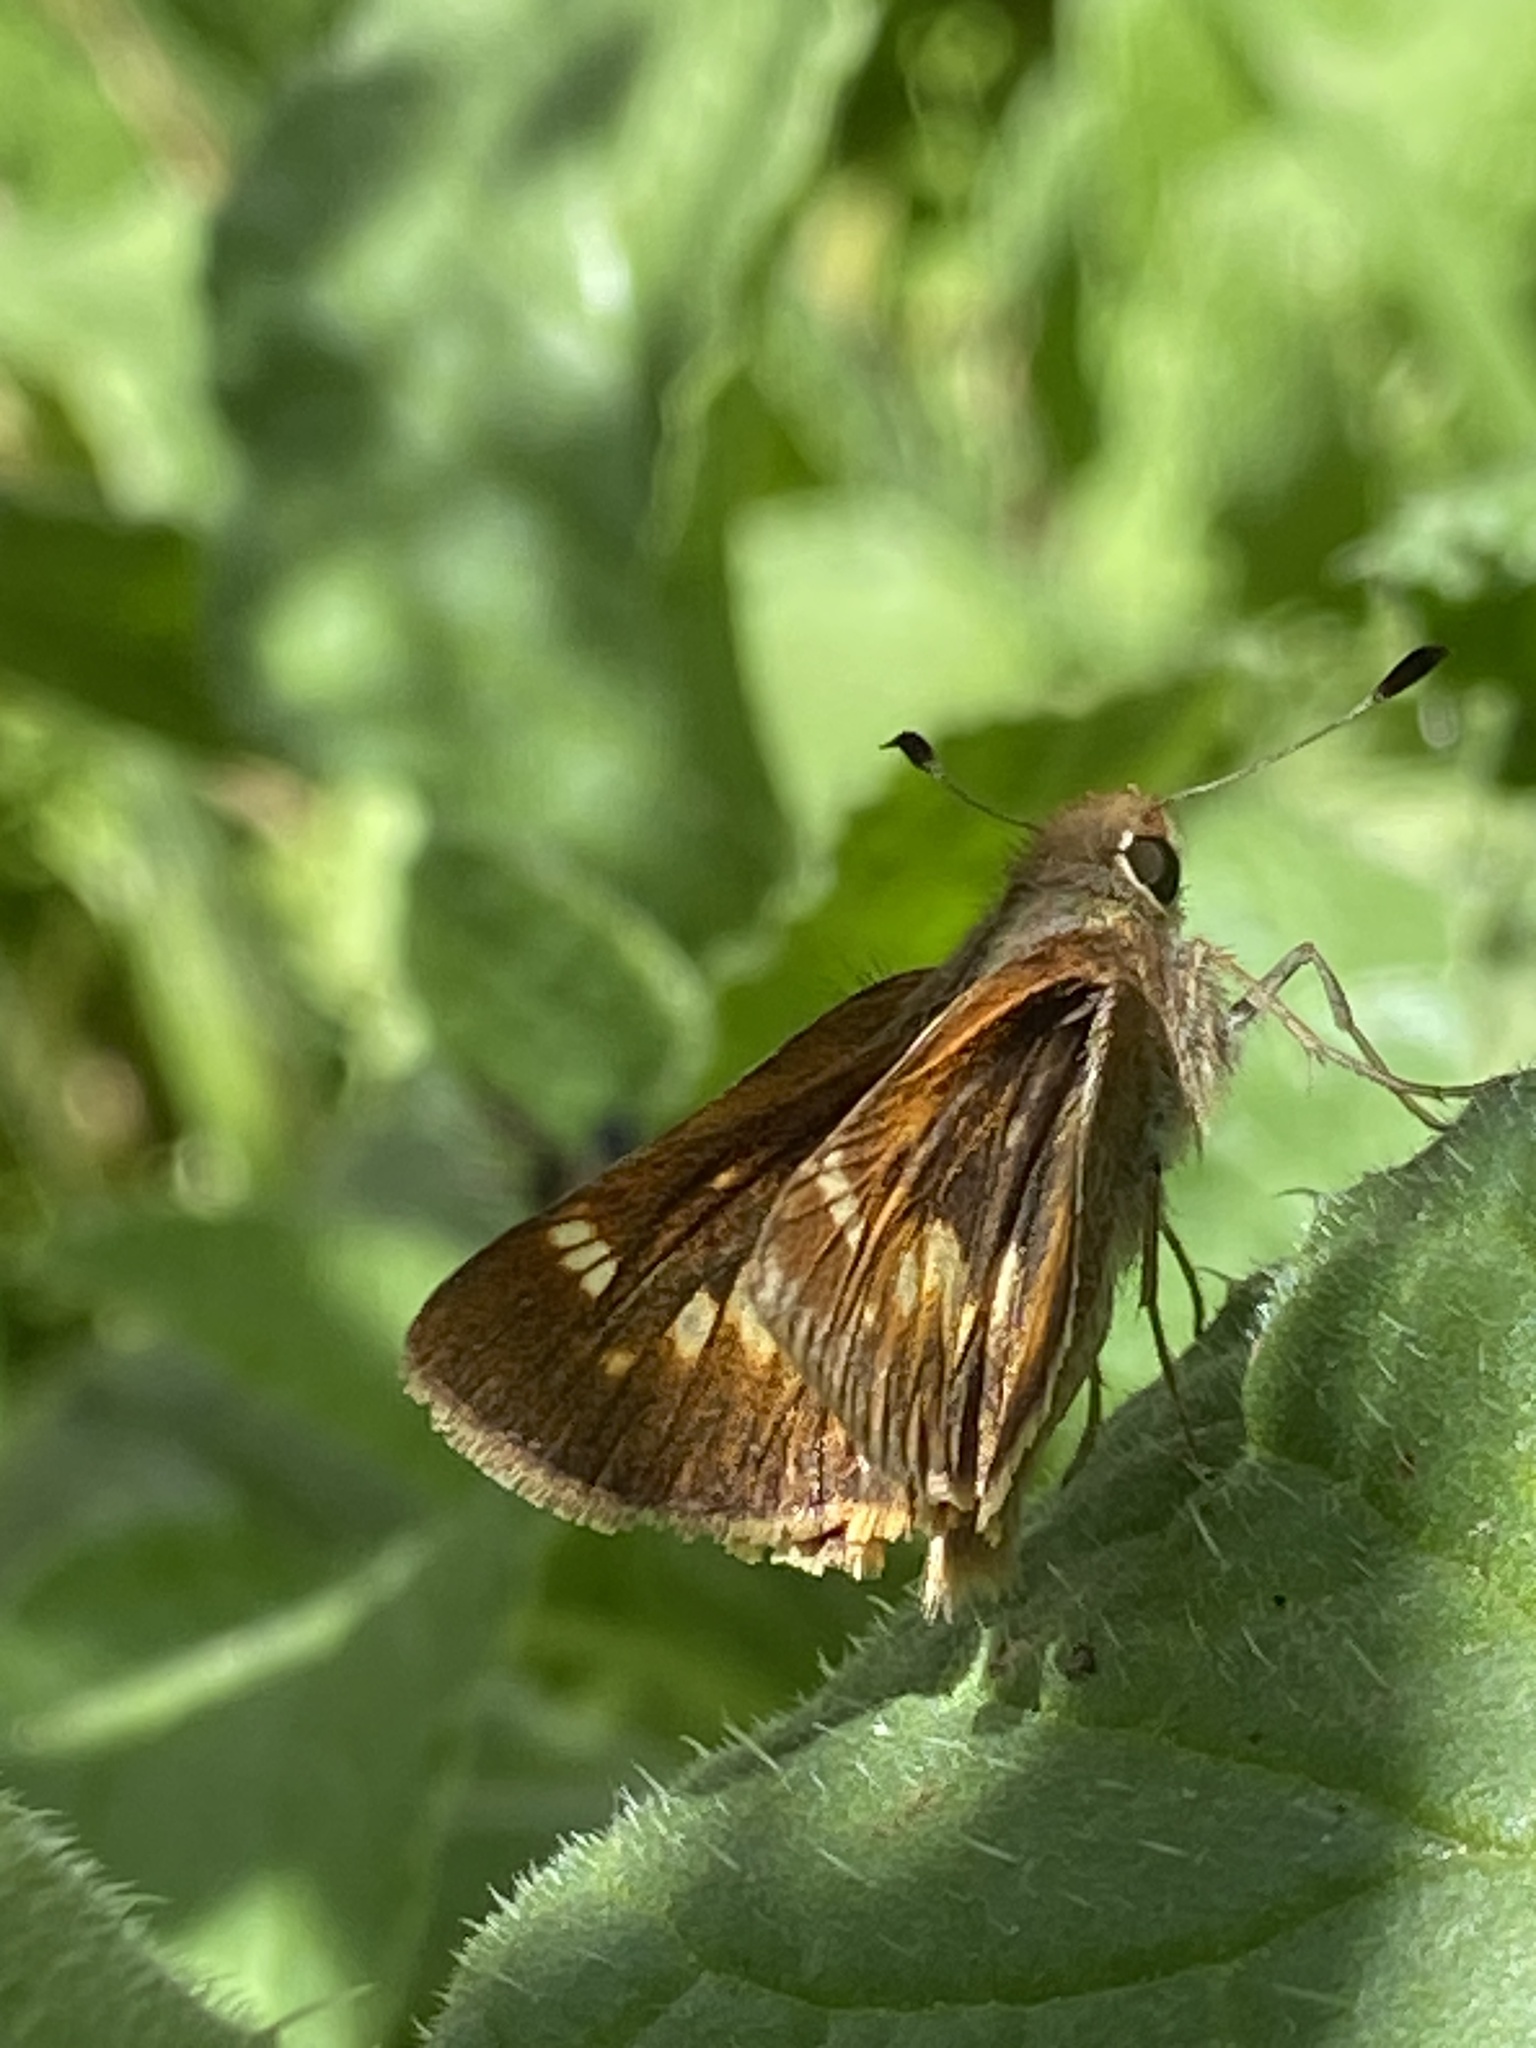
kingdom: Animalia
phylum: Arthropoda
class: Insecta
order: Lepidoptera
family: Hesperiidae
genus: Lon
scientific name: Lon melane
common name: Umber skipper
